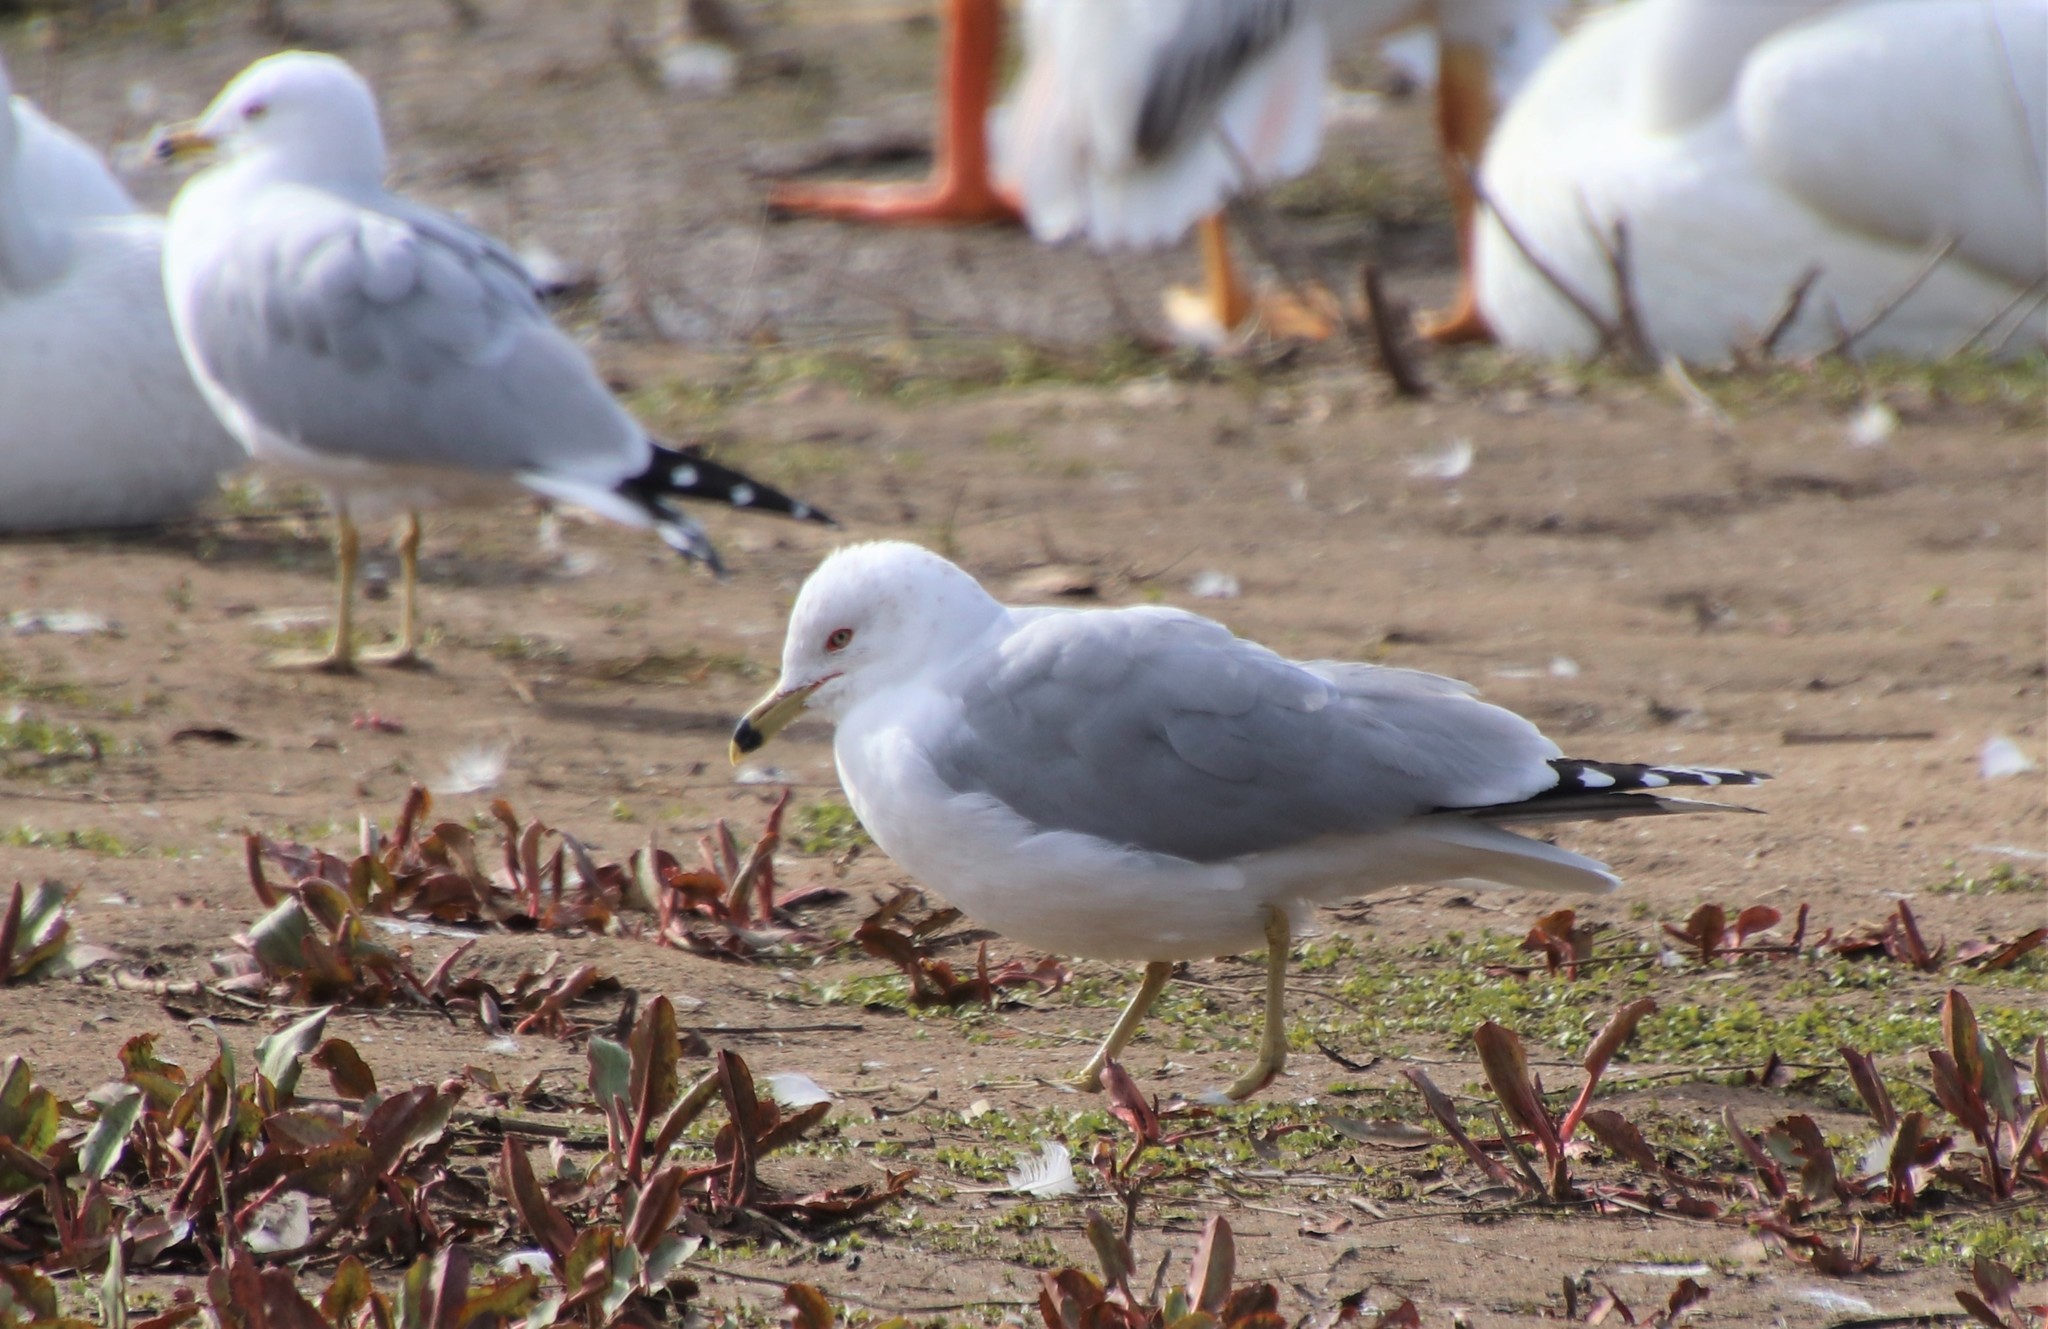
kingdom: Animalia
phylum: Chordata
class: Aves
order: Charadriiformes
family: Laridae
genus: Larus
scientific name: Larus delawarensis
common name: Ring-billed gull
